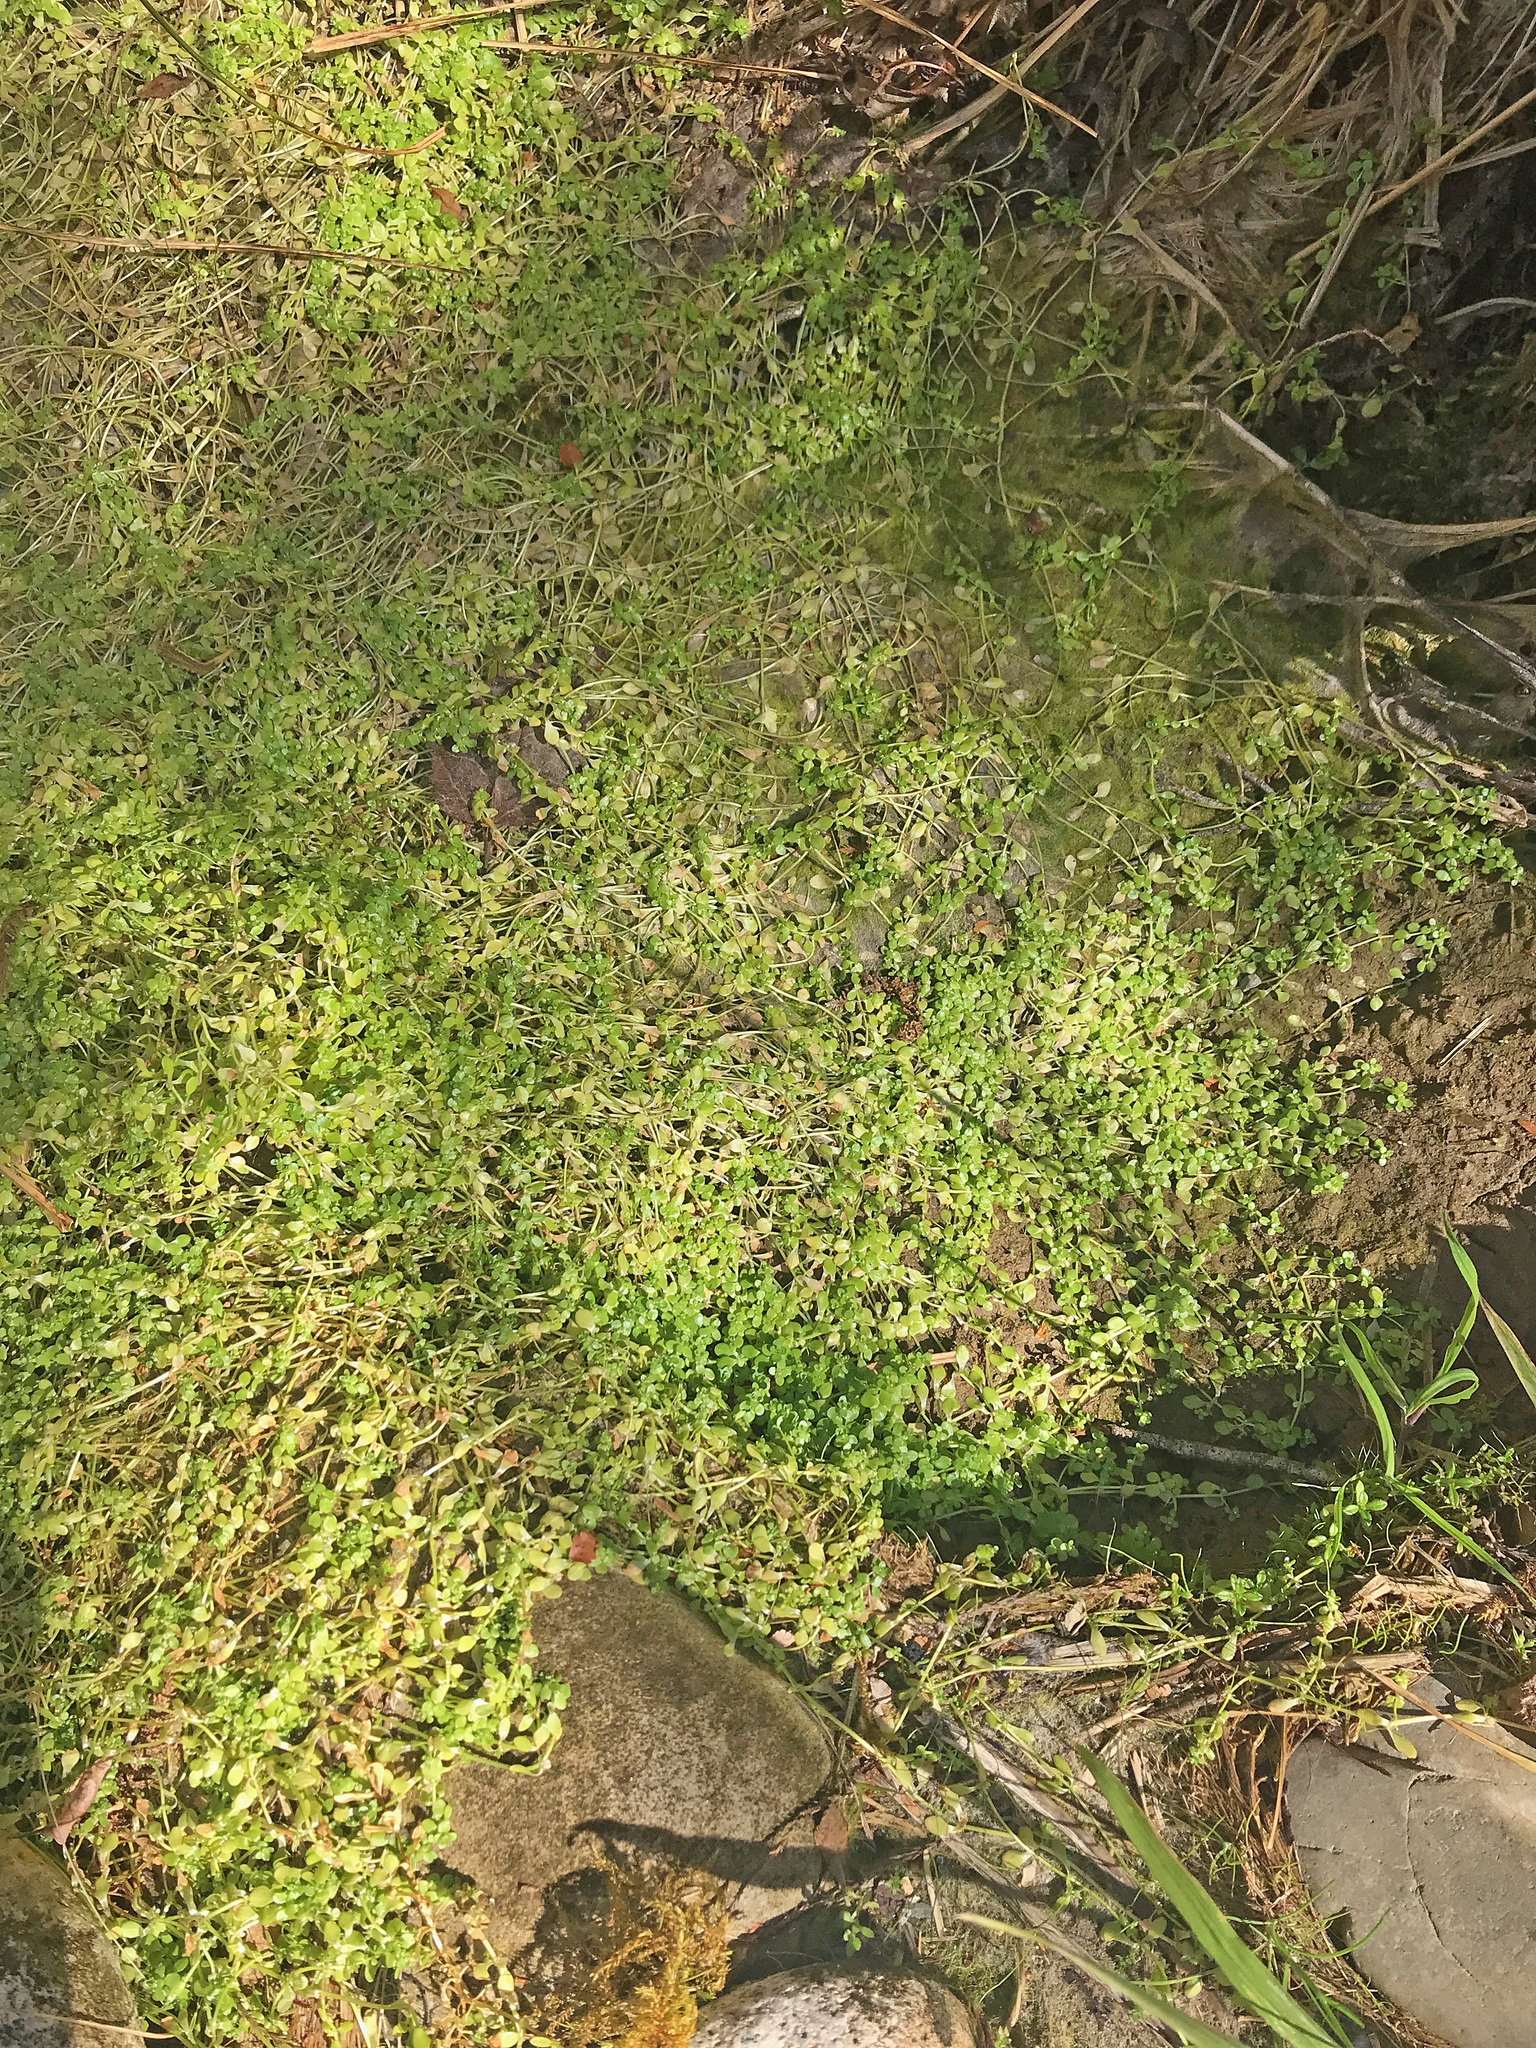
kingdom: Plantae
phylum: Tracheophyta
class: Magnoliopsida
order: Lamiales
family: Plantaginaceae
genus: Callitriche
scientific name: Callitriche stagnalis
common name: Common water-starwort
